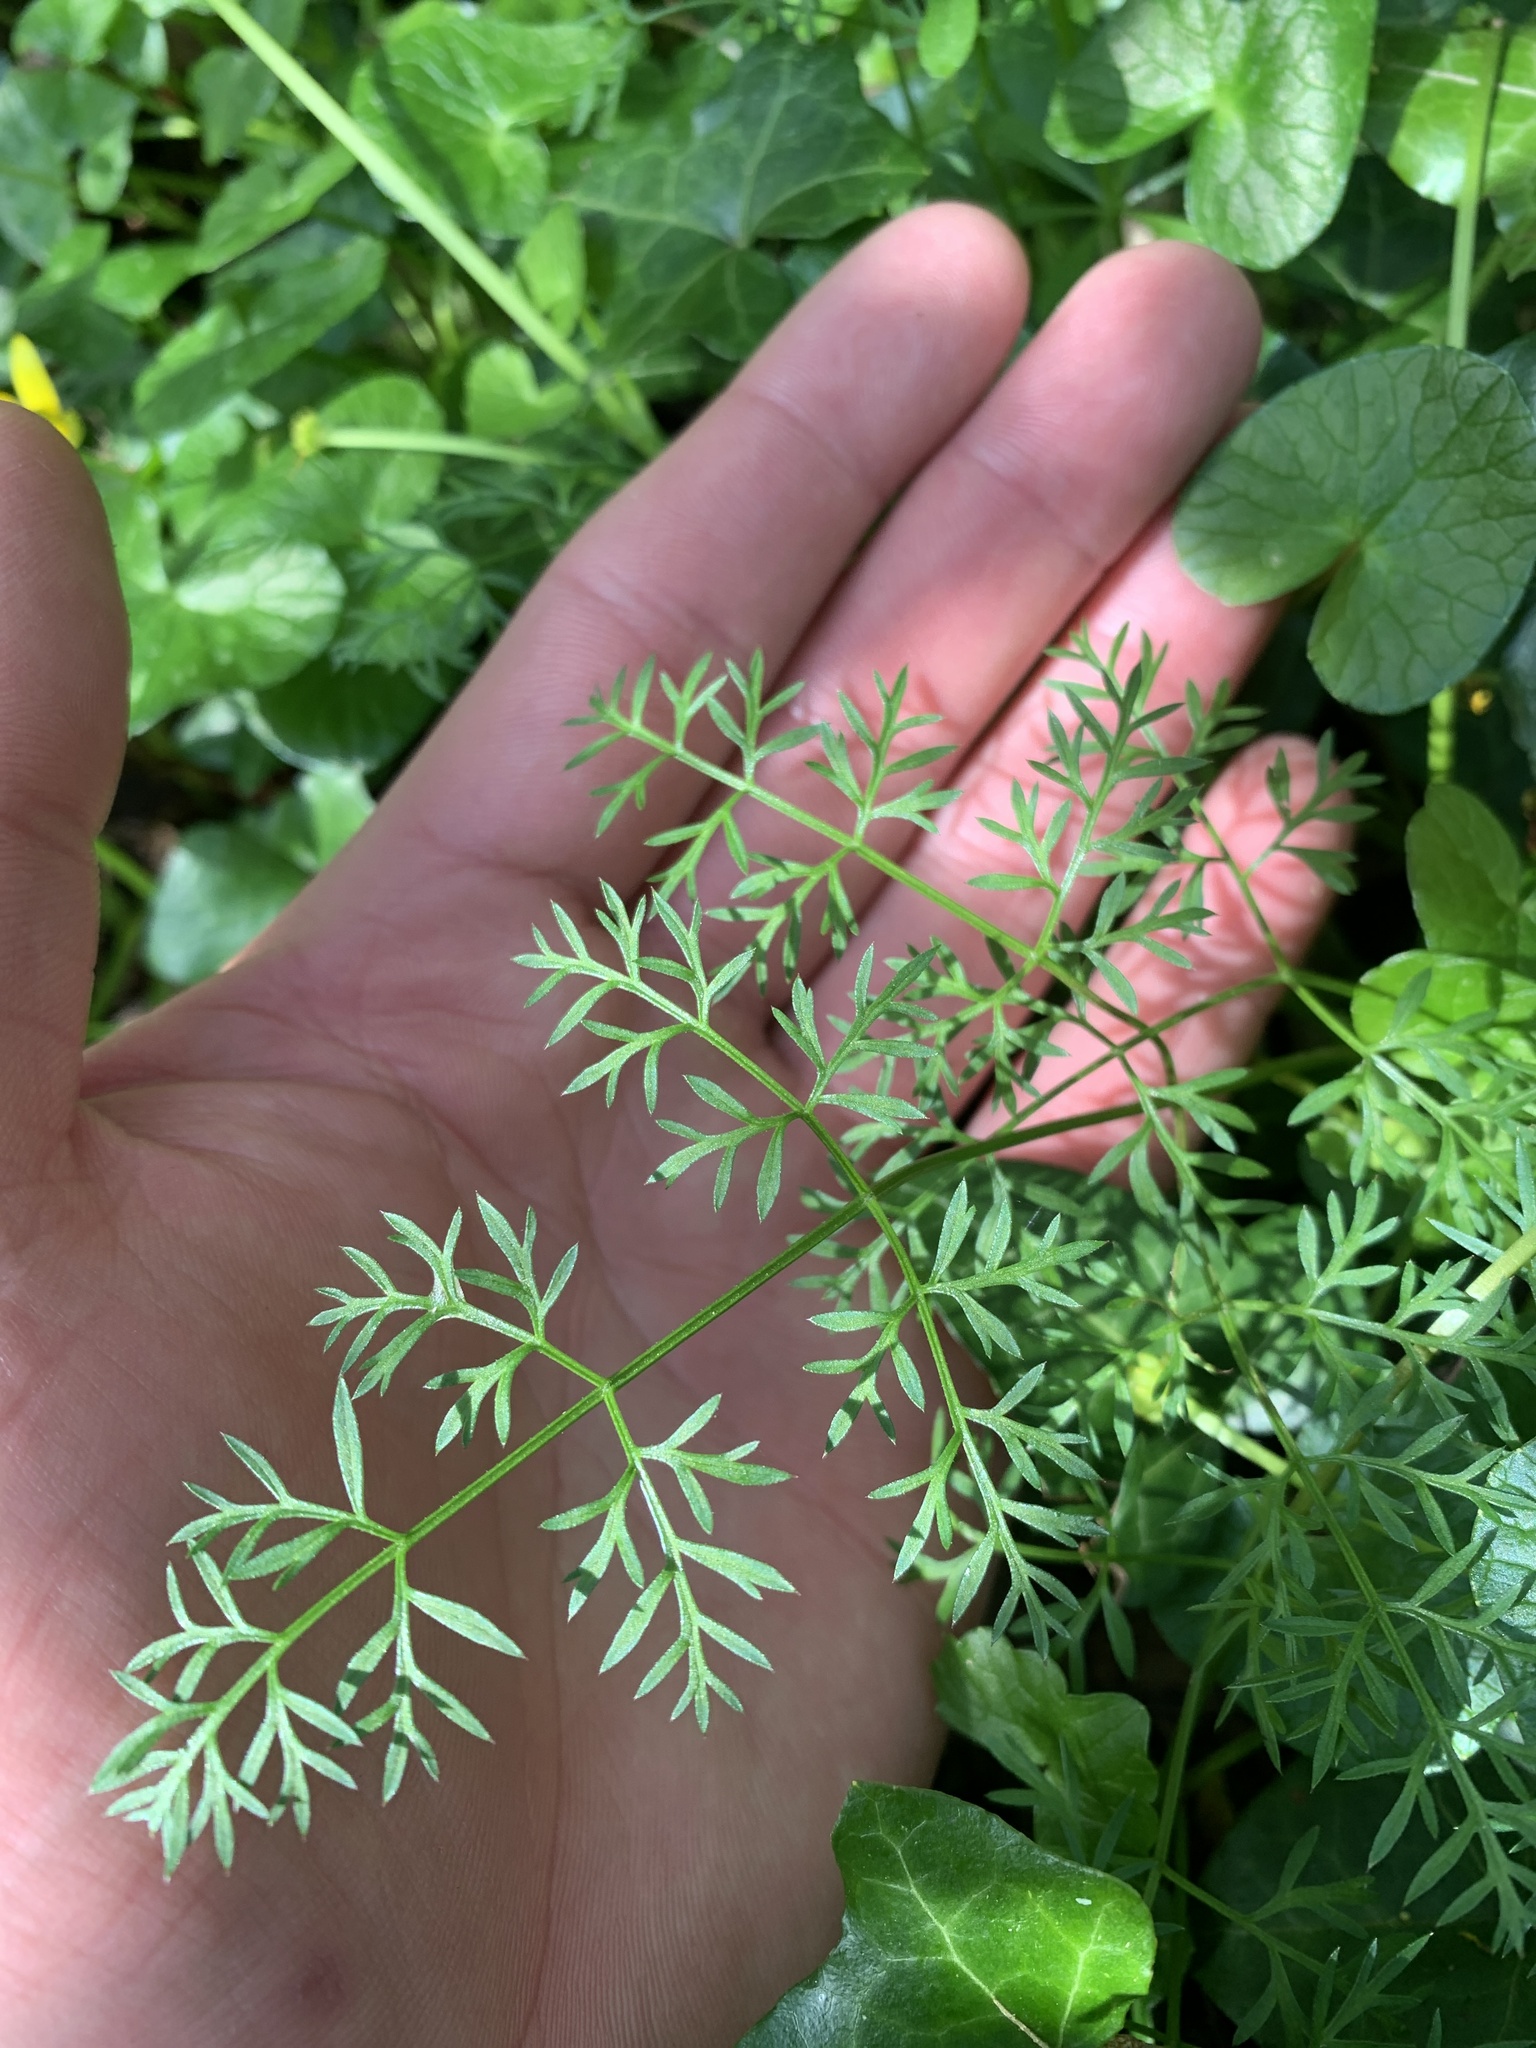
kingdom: Plantae
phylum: Tracheophyta
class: Magnoliopsida
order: Apiales
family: Apiaceae
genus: Conopodium
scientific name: Conopodium majus
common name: Pignut
